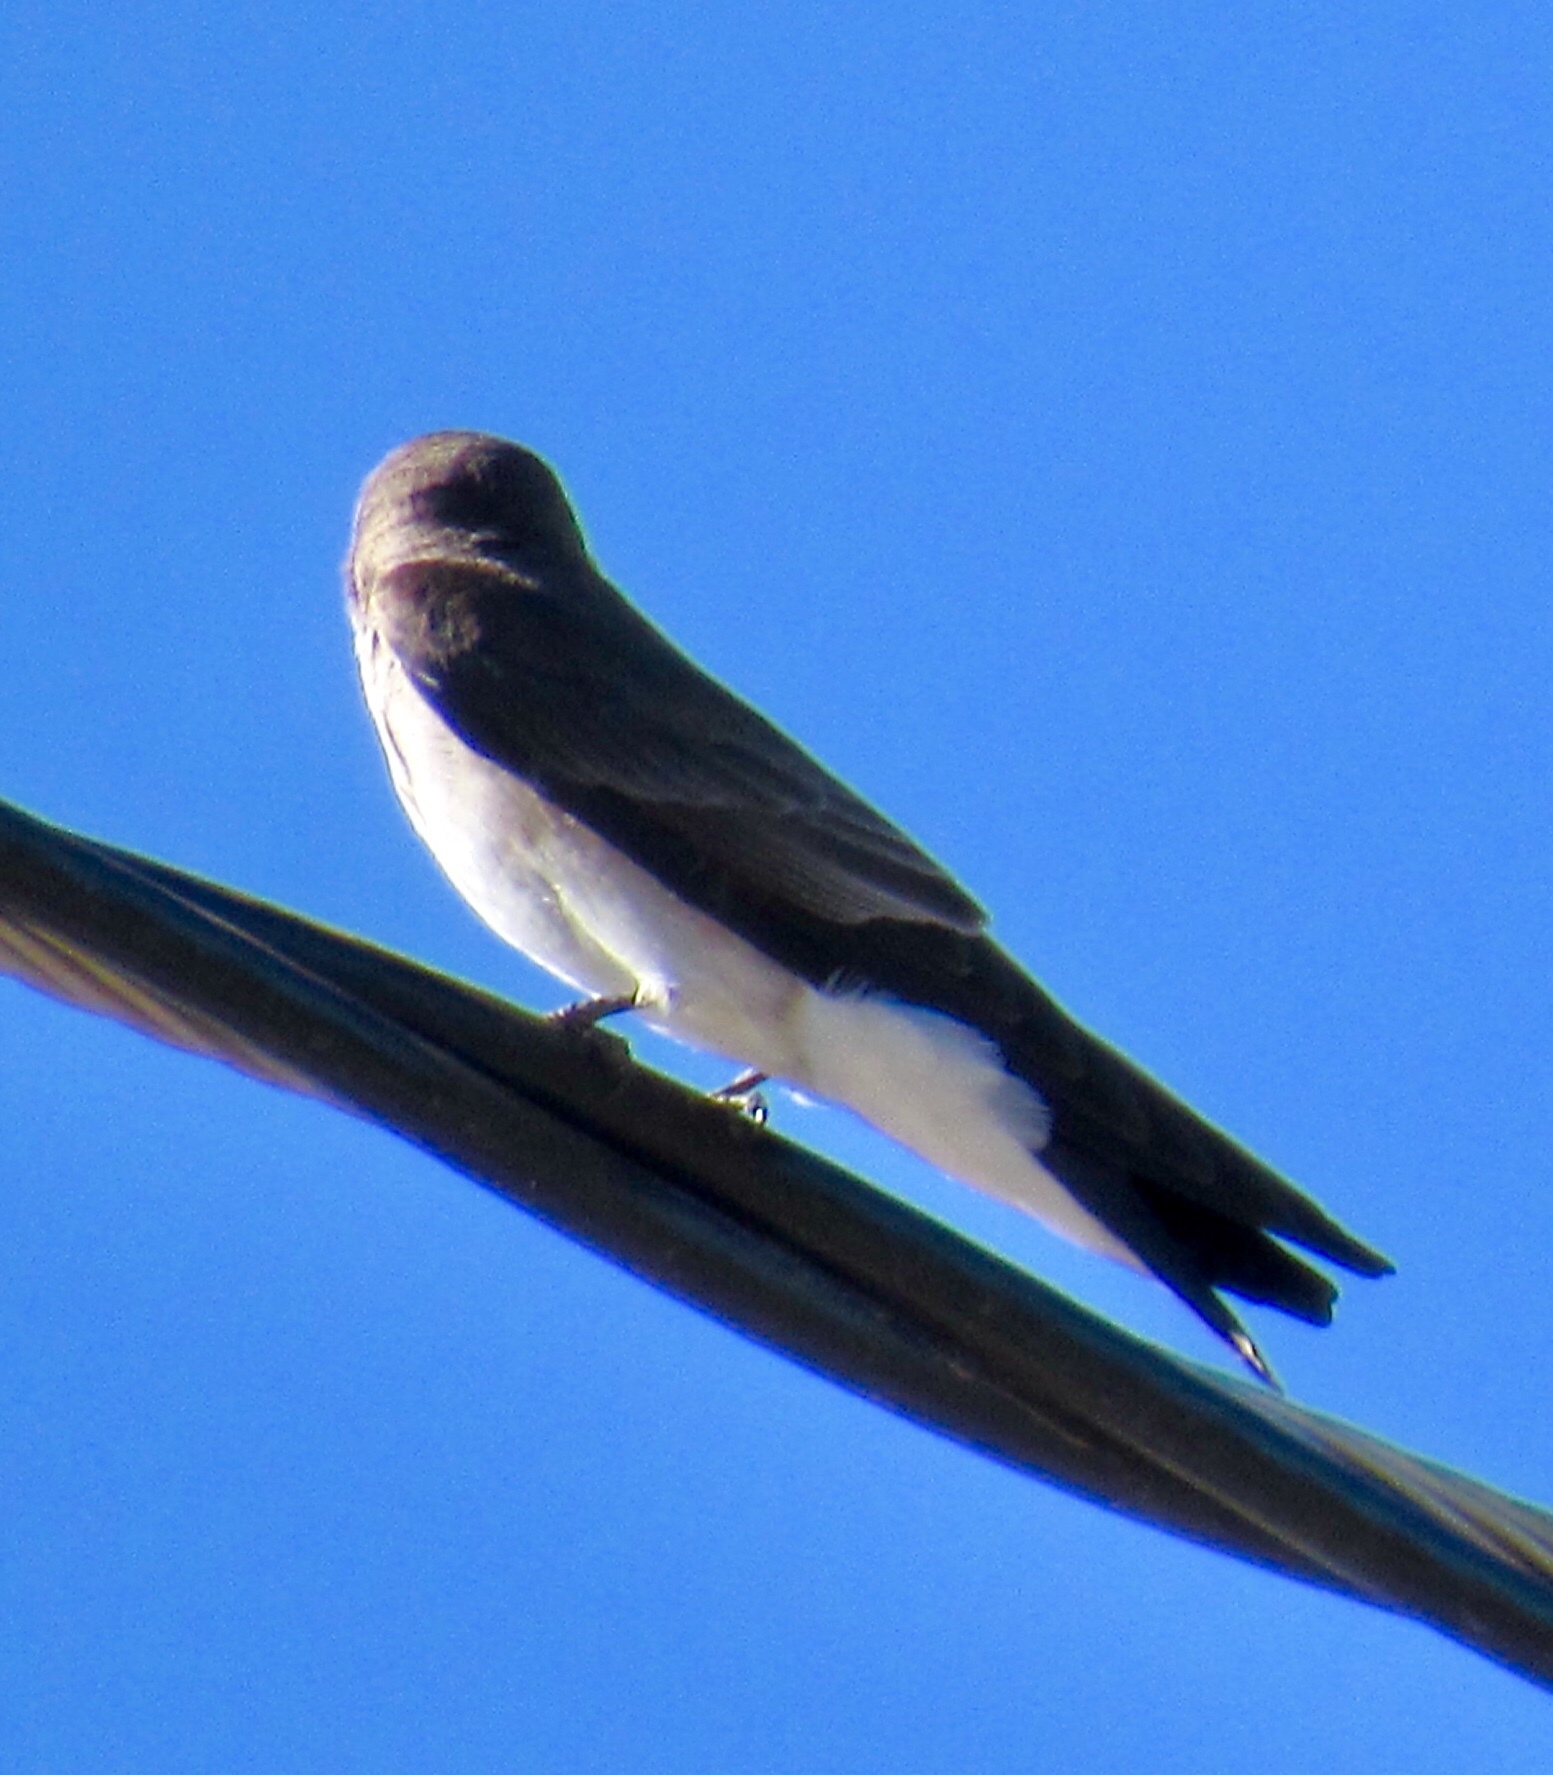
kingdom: Animalia
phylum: Chordata
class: Aves
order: Passeriformes
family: Hirundinidae
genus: Stelgidopteryx
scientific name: Stelgidopteryx serripennis
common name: Northern rough-winged swallow
